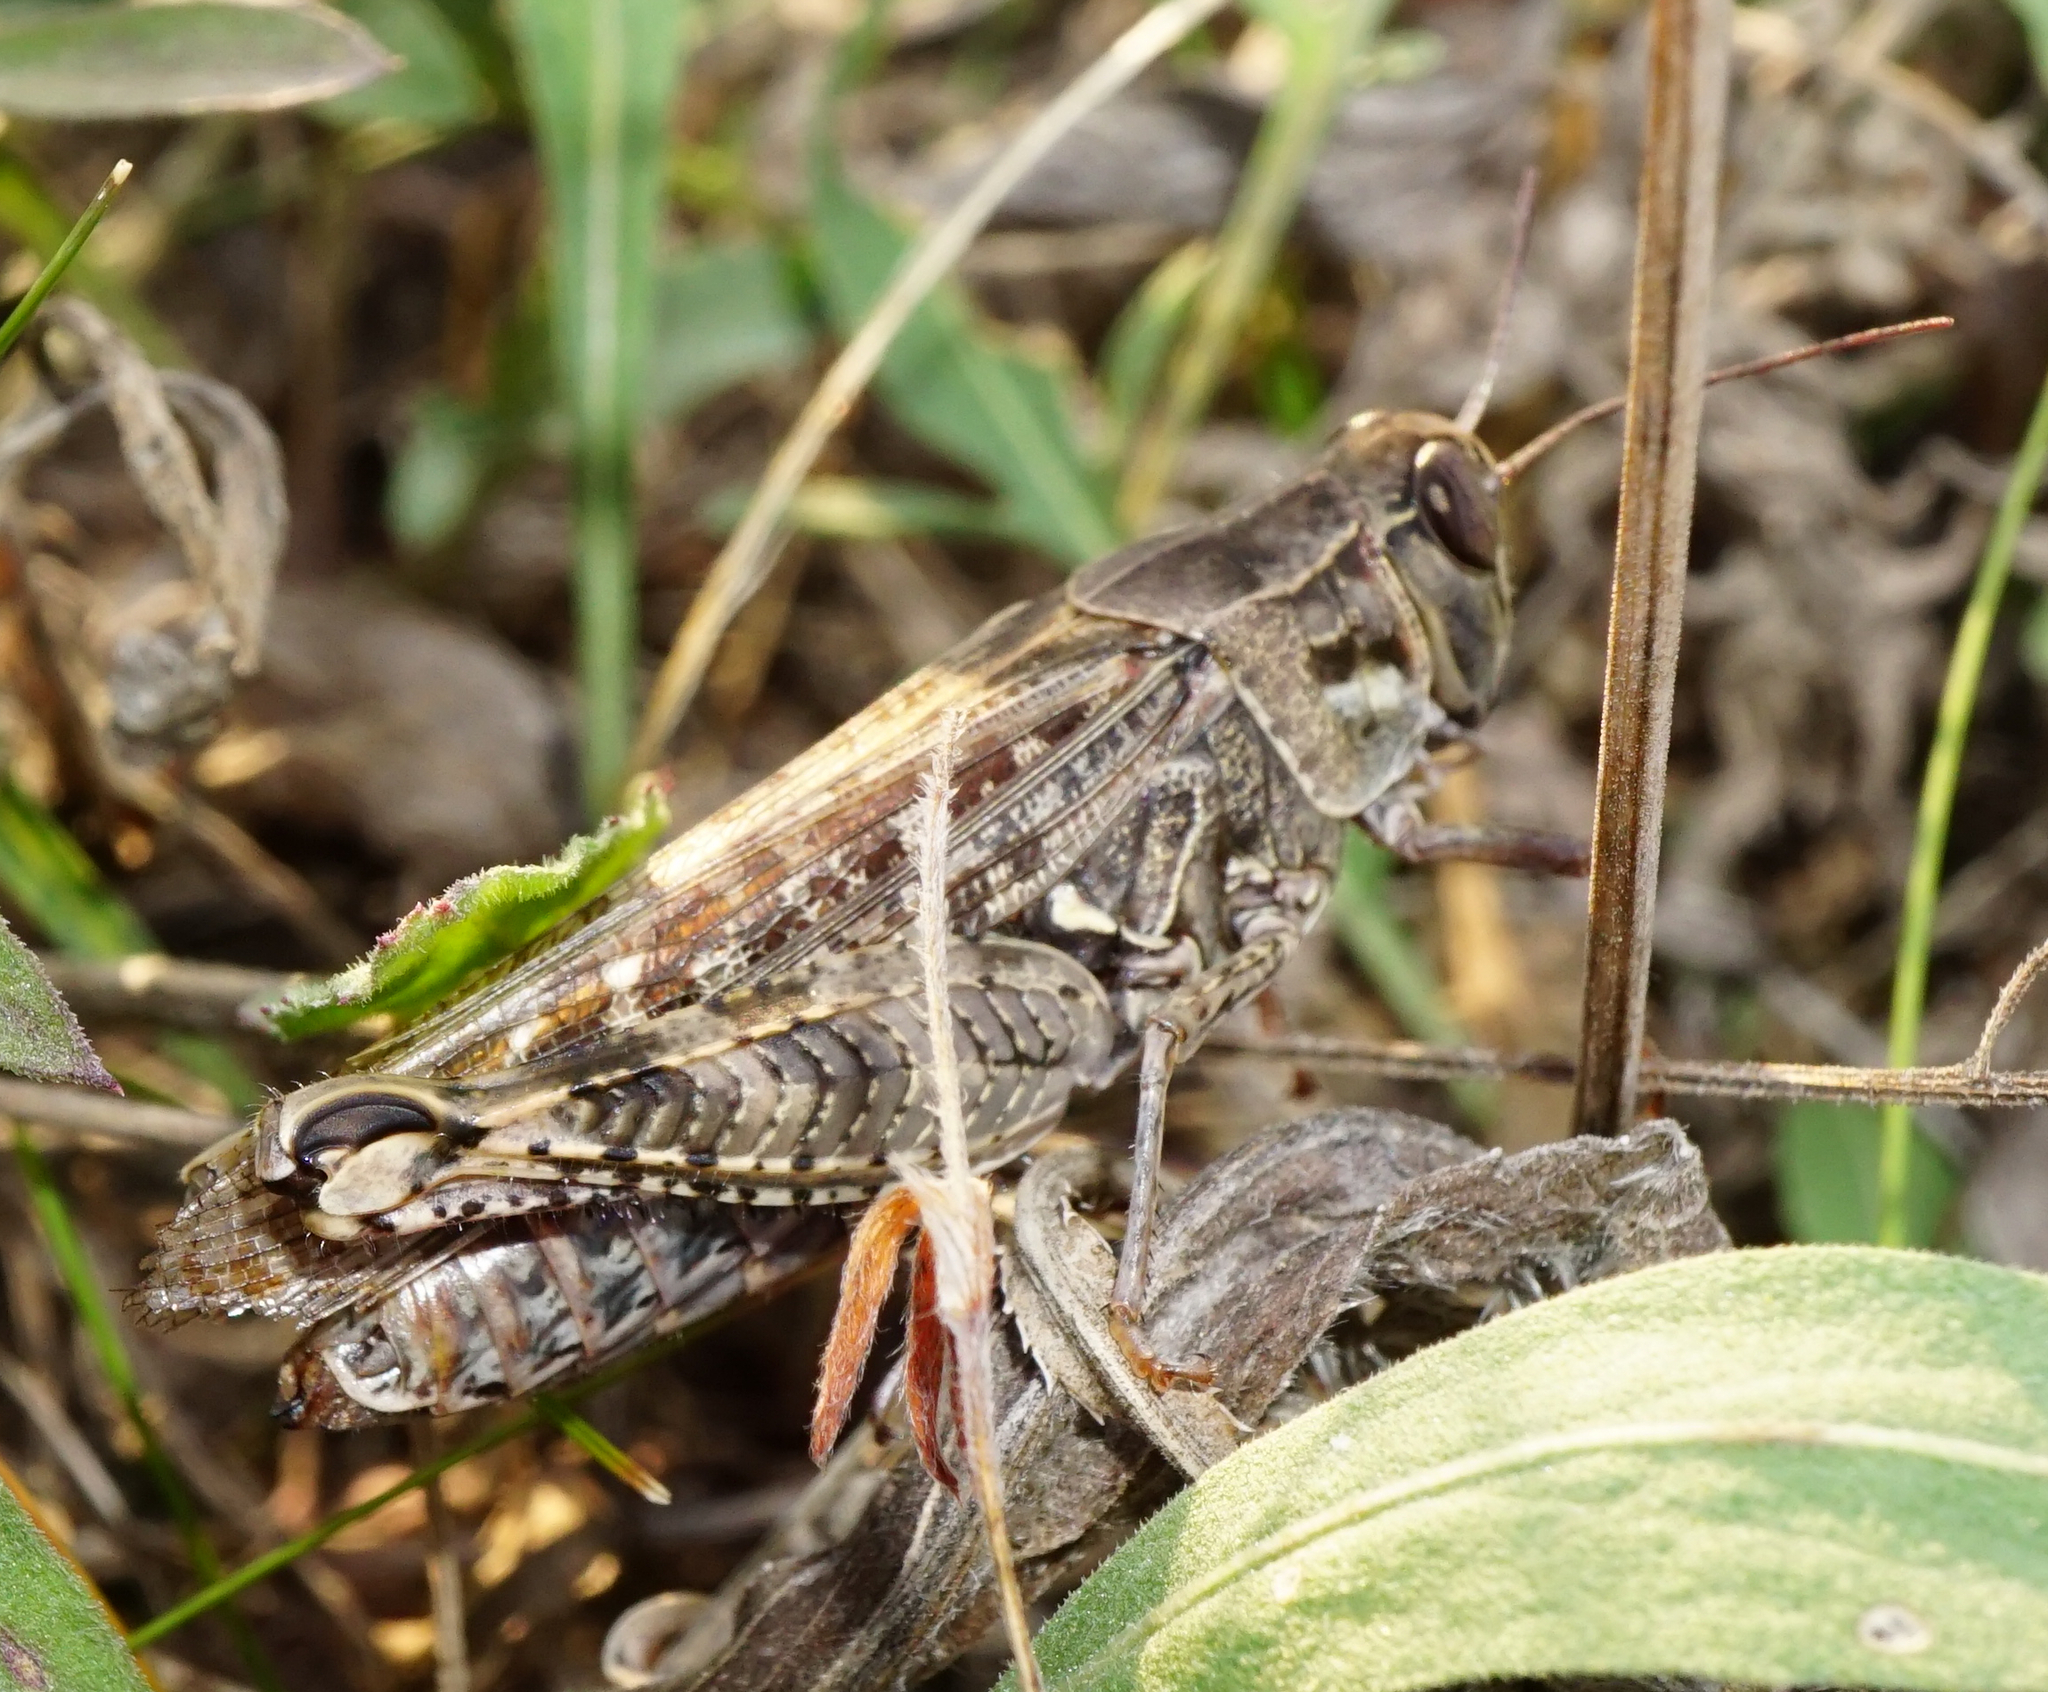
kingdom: Animalia
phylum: Arthropoda
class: Insecta
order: Orthoptera
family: Acrididae
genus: Calliptamus
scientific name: Calliptamus italicus
